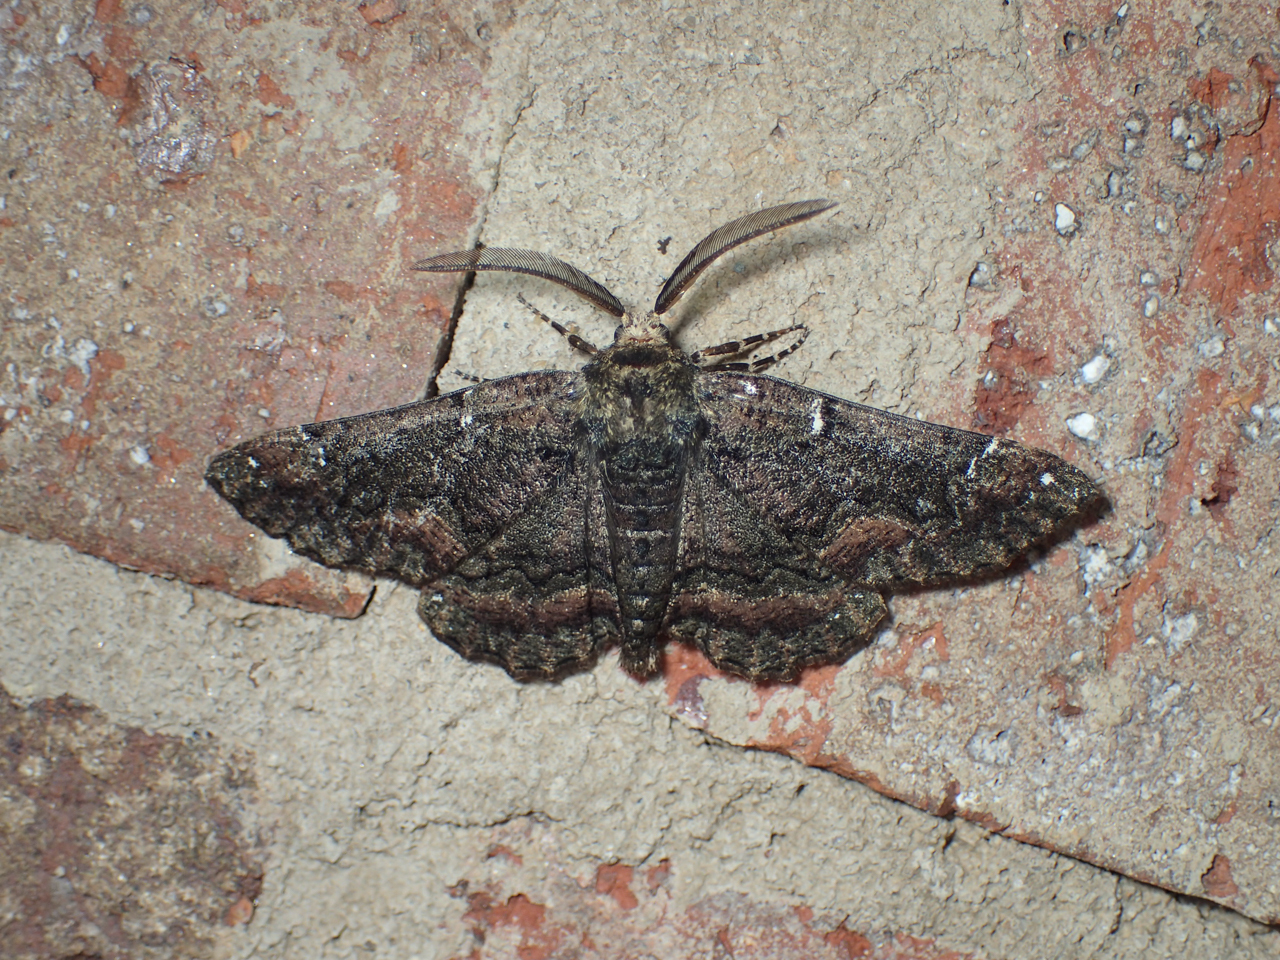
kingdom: Animalia
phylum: Arthropoda
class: Insecta
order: Lepidoptera
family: Geometridae
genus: Phaeoura
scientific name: Phaeoura quernaria
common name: Oak beauty
